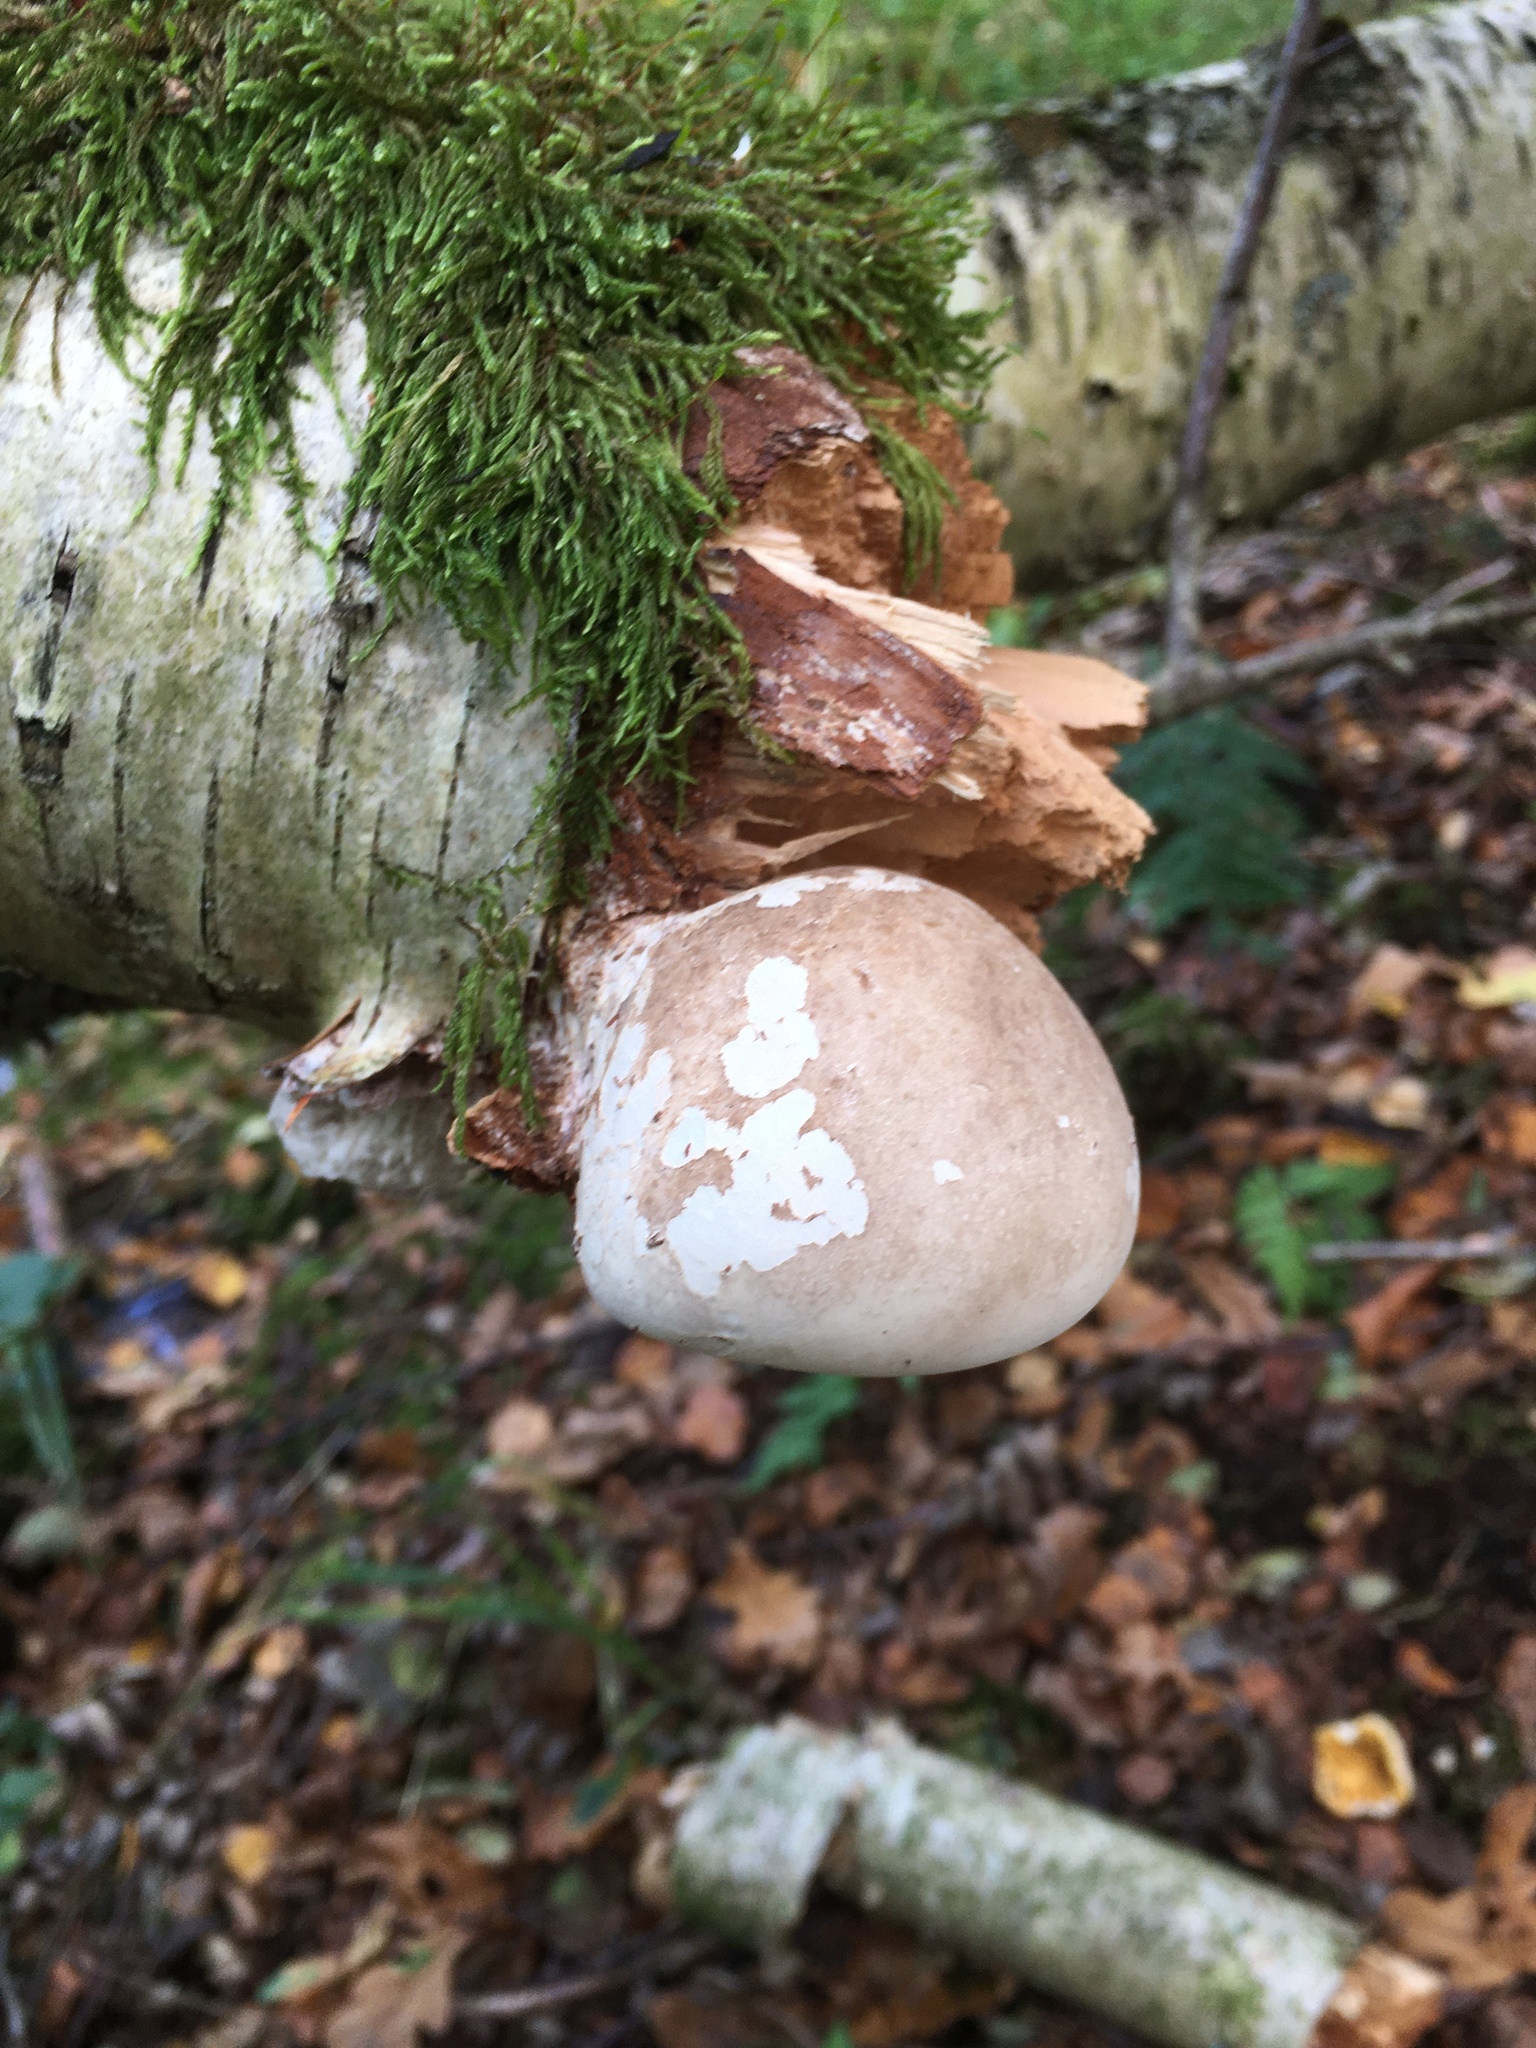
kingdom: Fungi
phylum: Basidiomycota
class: Agaricomycetes
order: Polyporales
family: Fomitopsidaceae
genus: Fomitopsis
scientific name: Fomitopsis betulina
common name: Birch polypore
